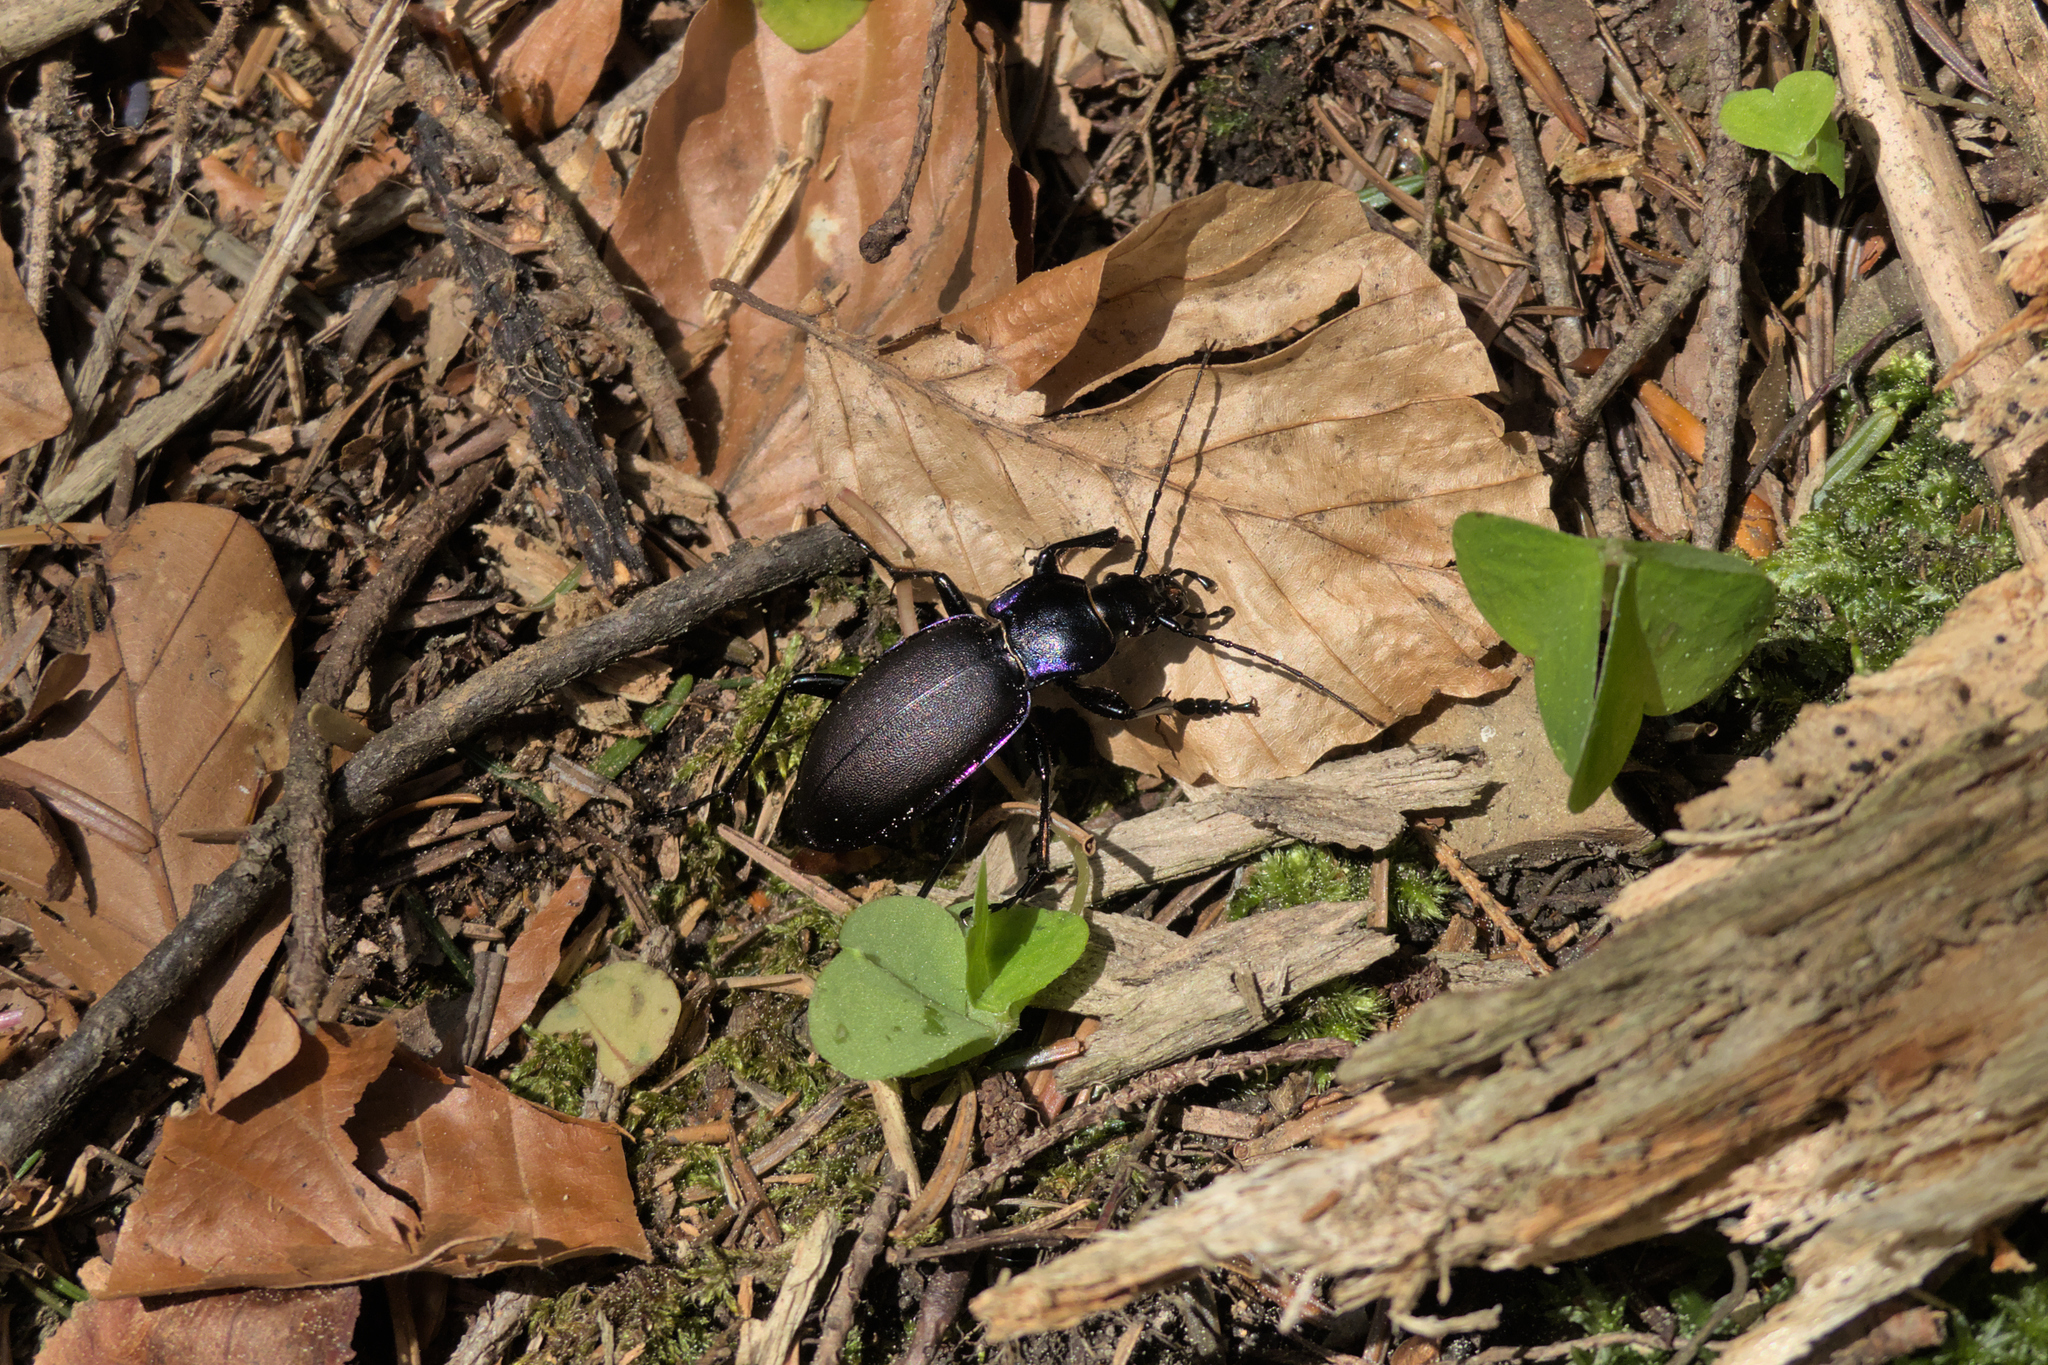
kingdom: Animalia
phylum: Arthropoda
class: Insecta
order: Coleoptera
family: Carabidae
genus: Carabus
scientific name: Carabus violaceus
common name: Violet ground beetle
